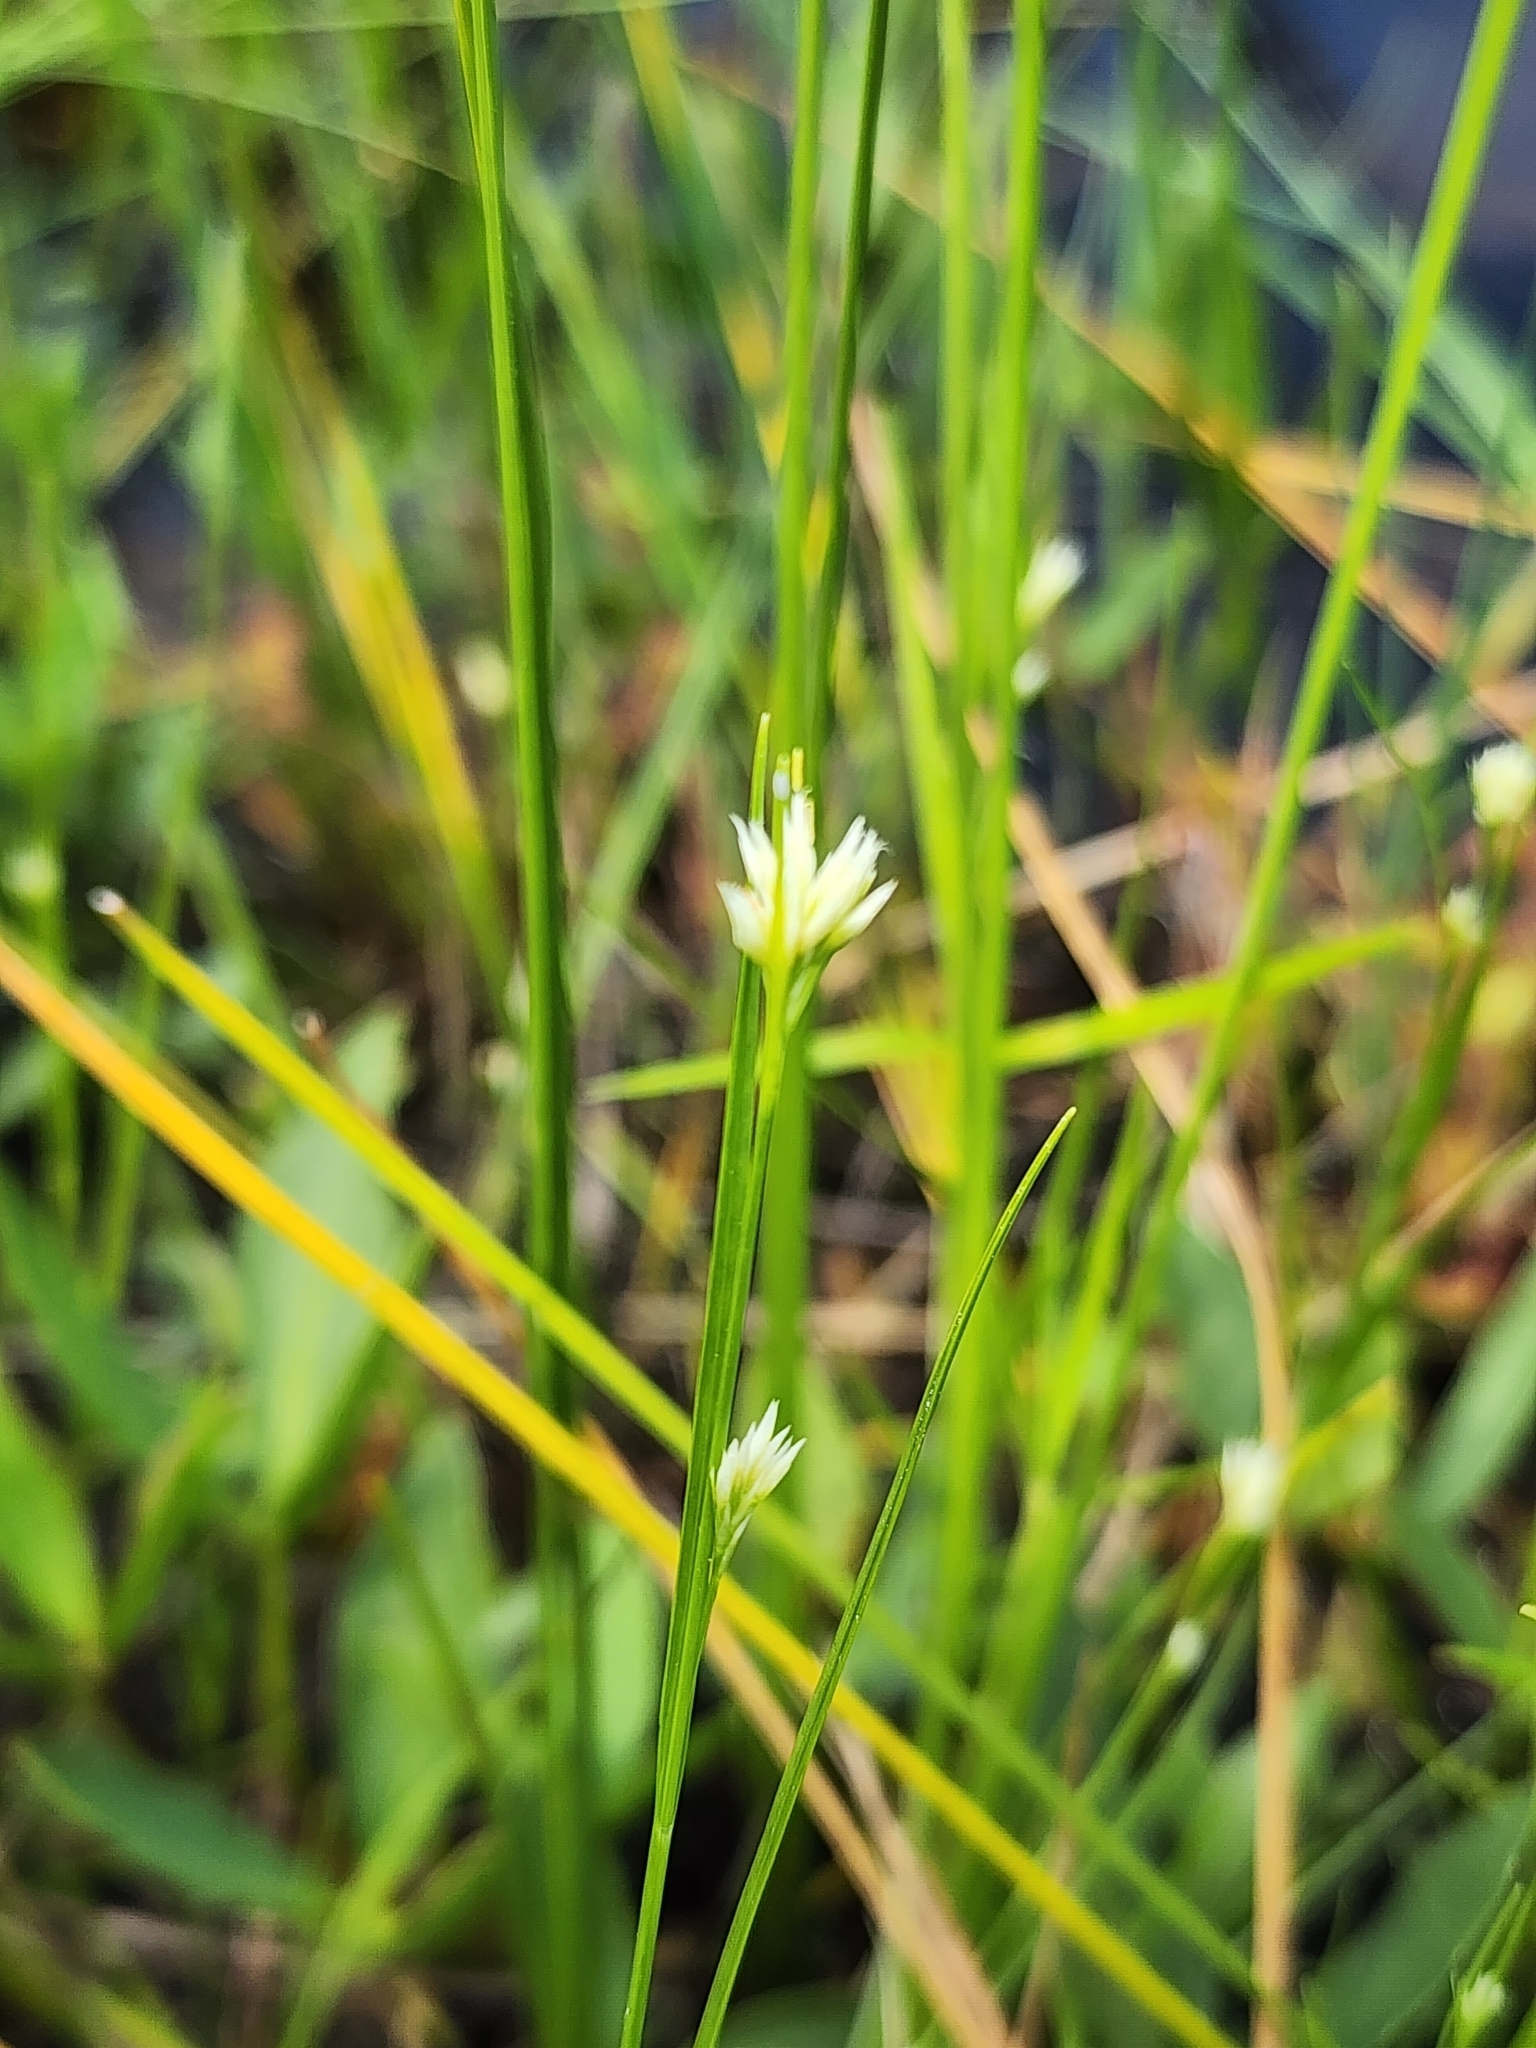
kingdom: Plantae
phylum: Tracheophyta
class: Liliopsida
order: Poales
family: Cyperaceae
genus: Rhynchospora
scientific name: Rhynchospora alba
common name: White beak-sedge
